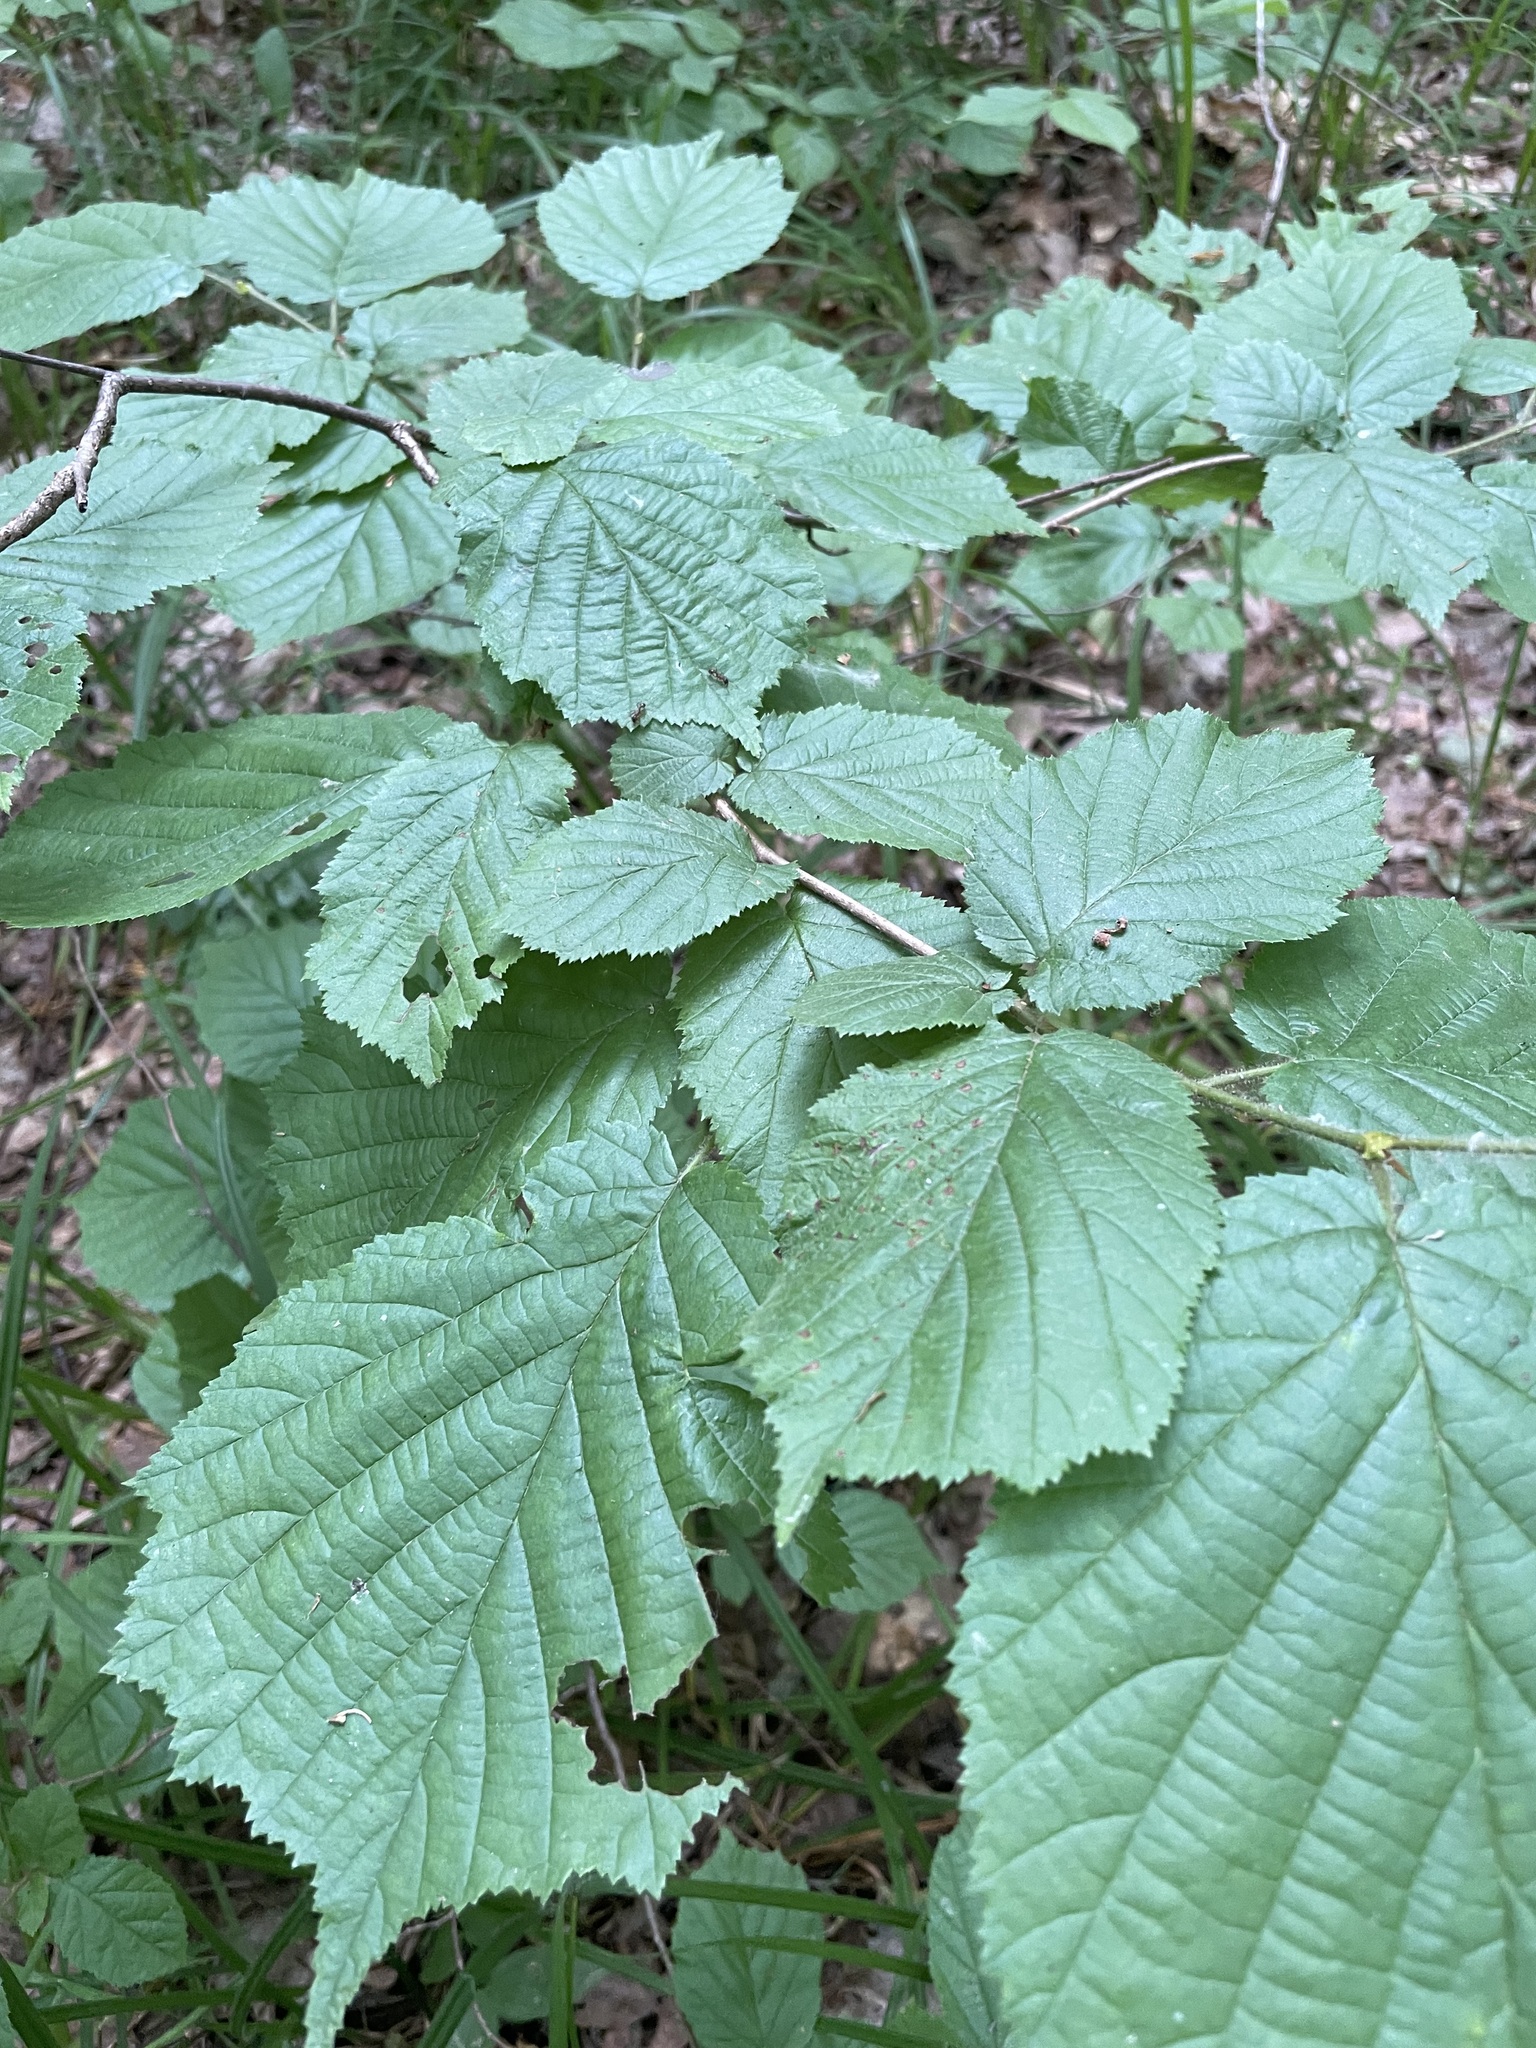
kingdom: Plantae
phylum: Tracheophyta
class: Magnoliopsida
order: Fagales
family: Betulaceae
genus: Corylus
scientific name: Corylus avellana
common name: European hazel
